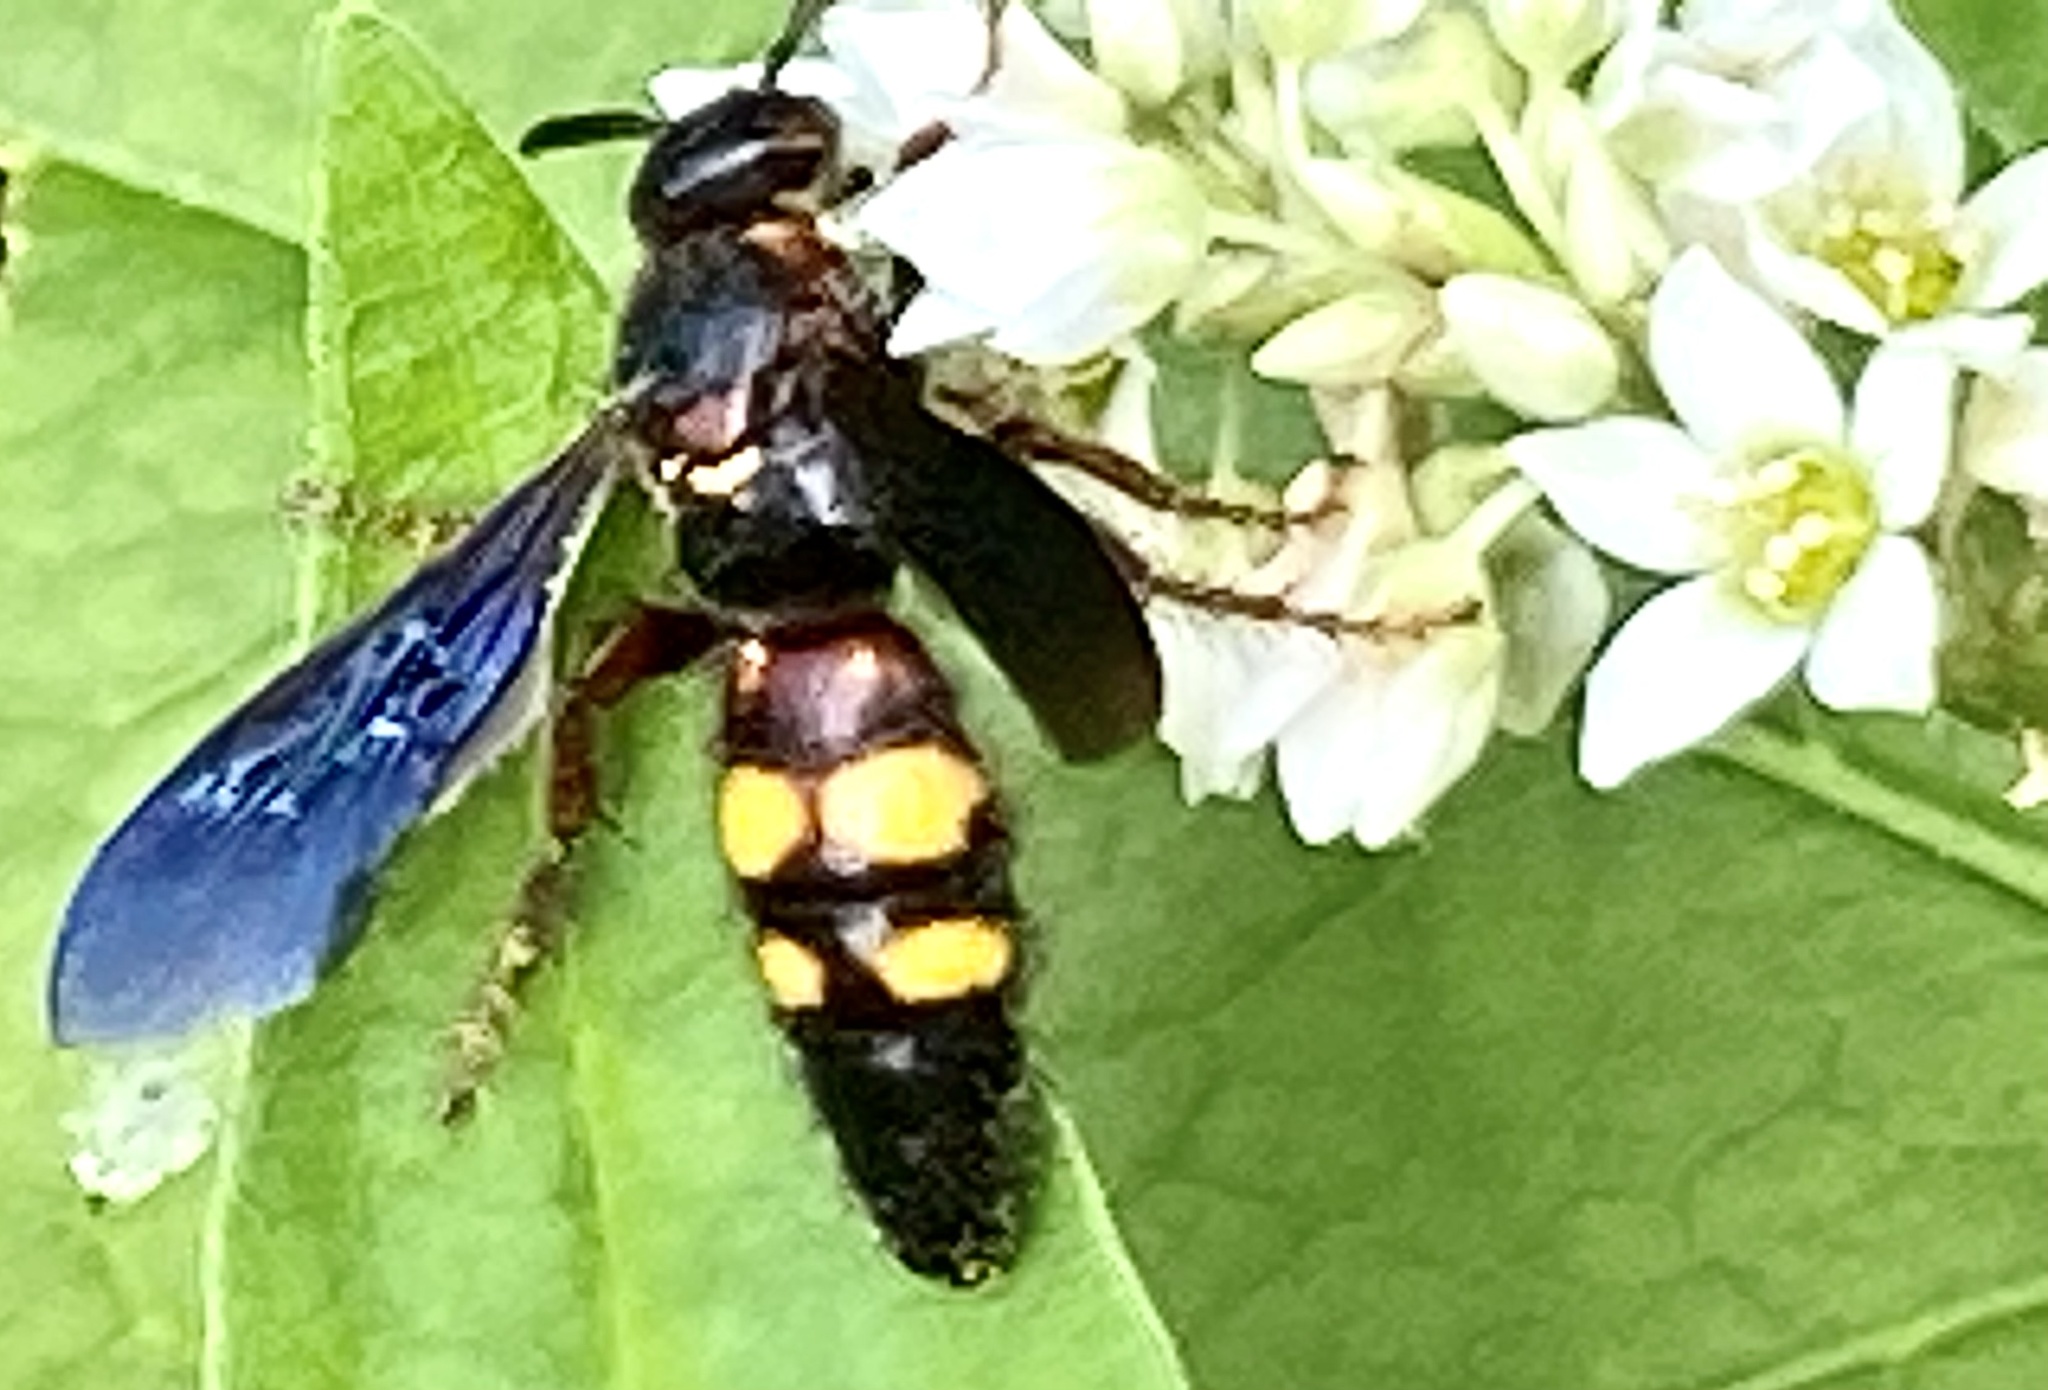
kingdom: Animalia
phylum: Arthropoda
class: Insecta
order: Hymenoptera
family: Scoliidae
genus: Scolia
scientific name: Scolia nobilitata
